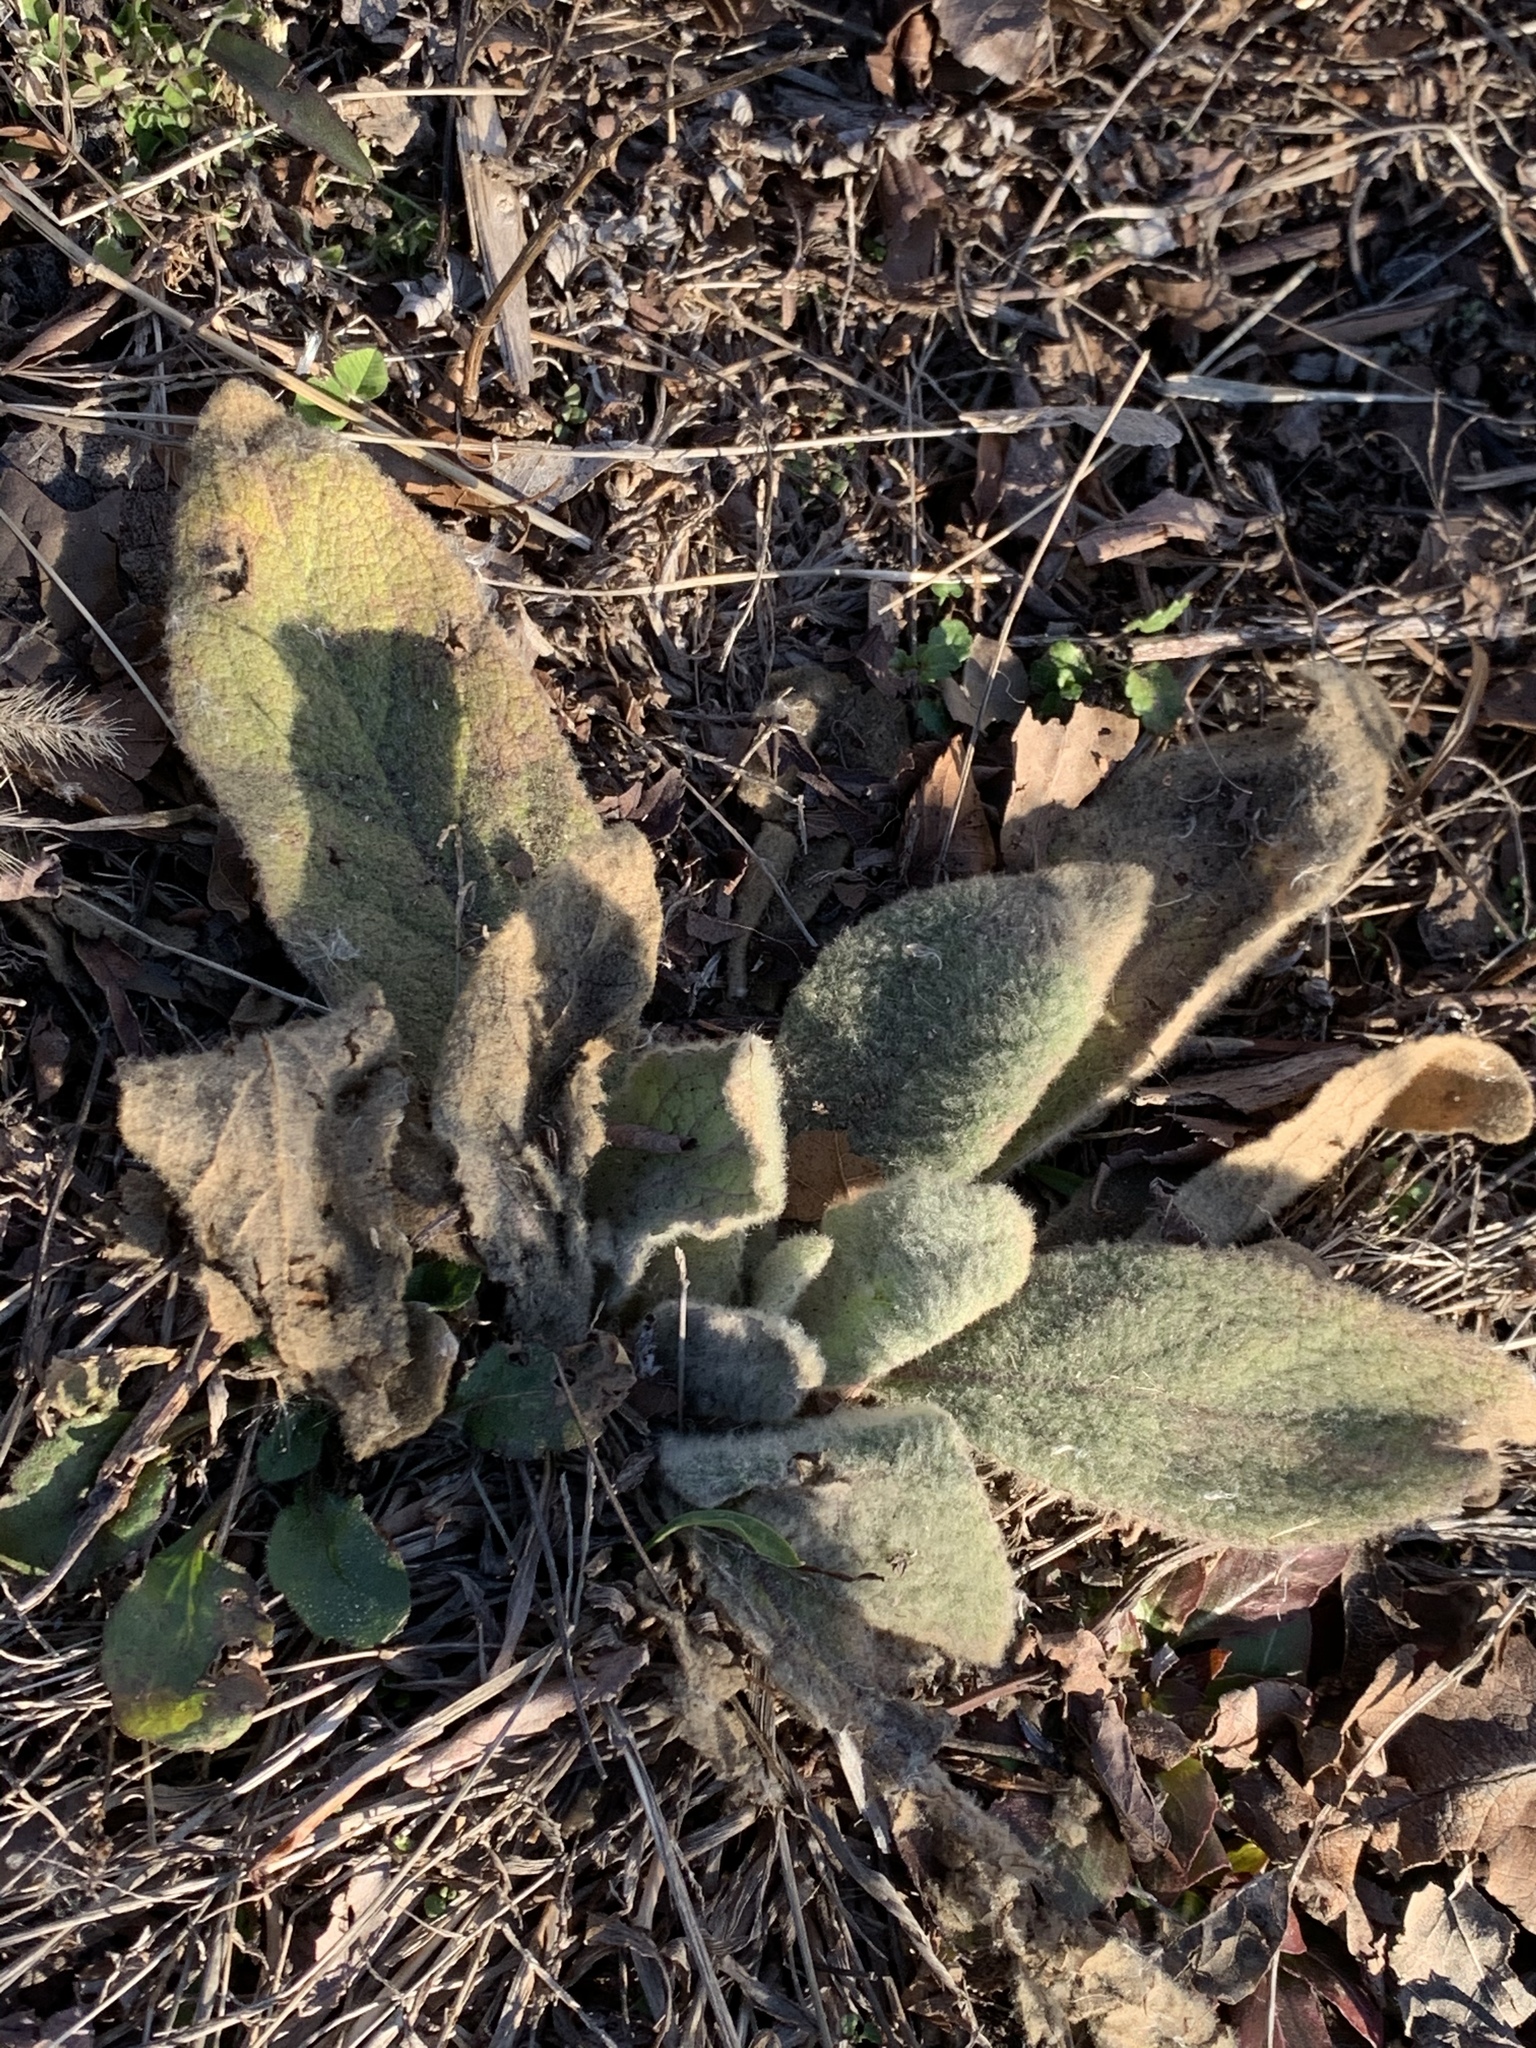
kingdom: Plantae
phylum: Tracheophyta
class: Magnoliopsida
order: Lamiales
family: Scrophulariaceae
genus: Verbascum
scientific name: Verbascum thapsus
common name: Common mullein
